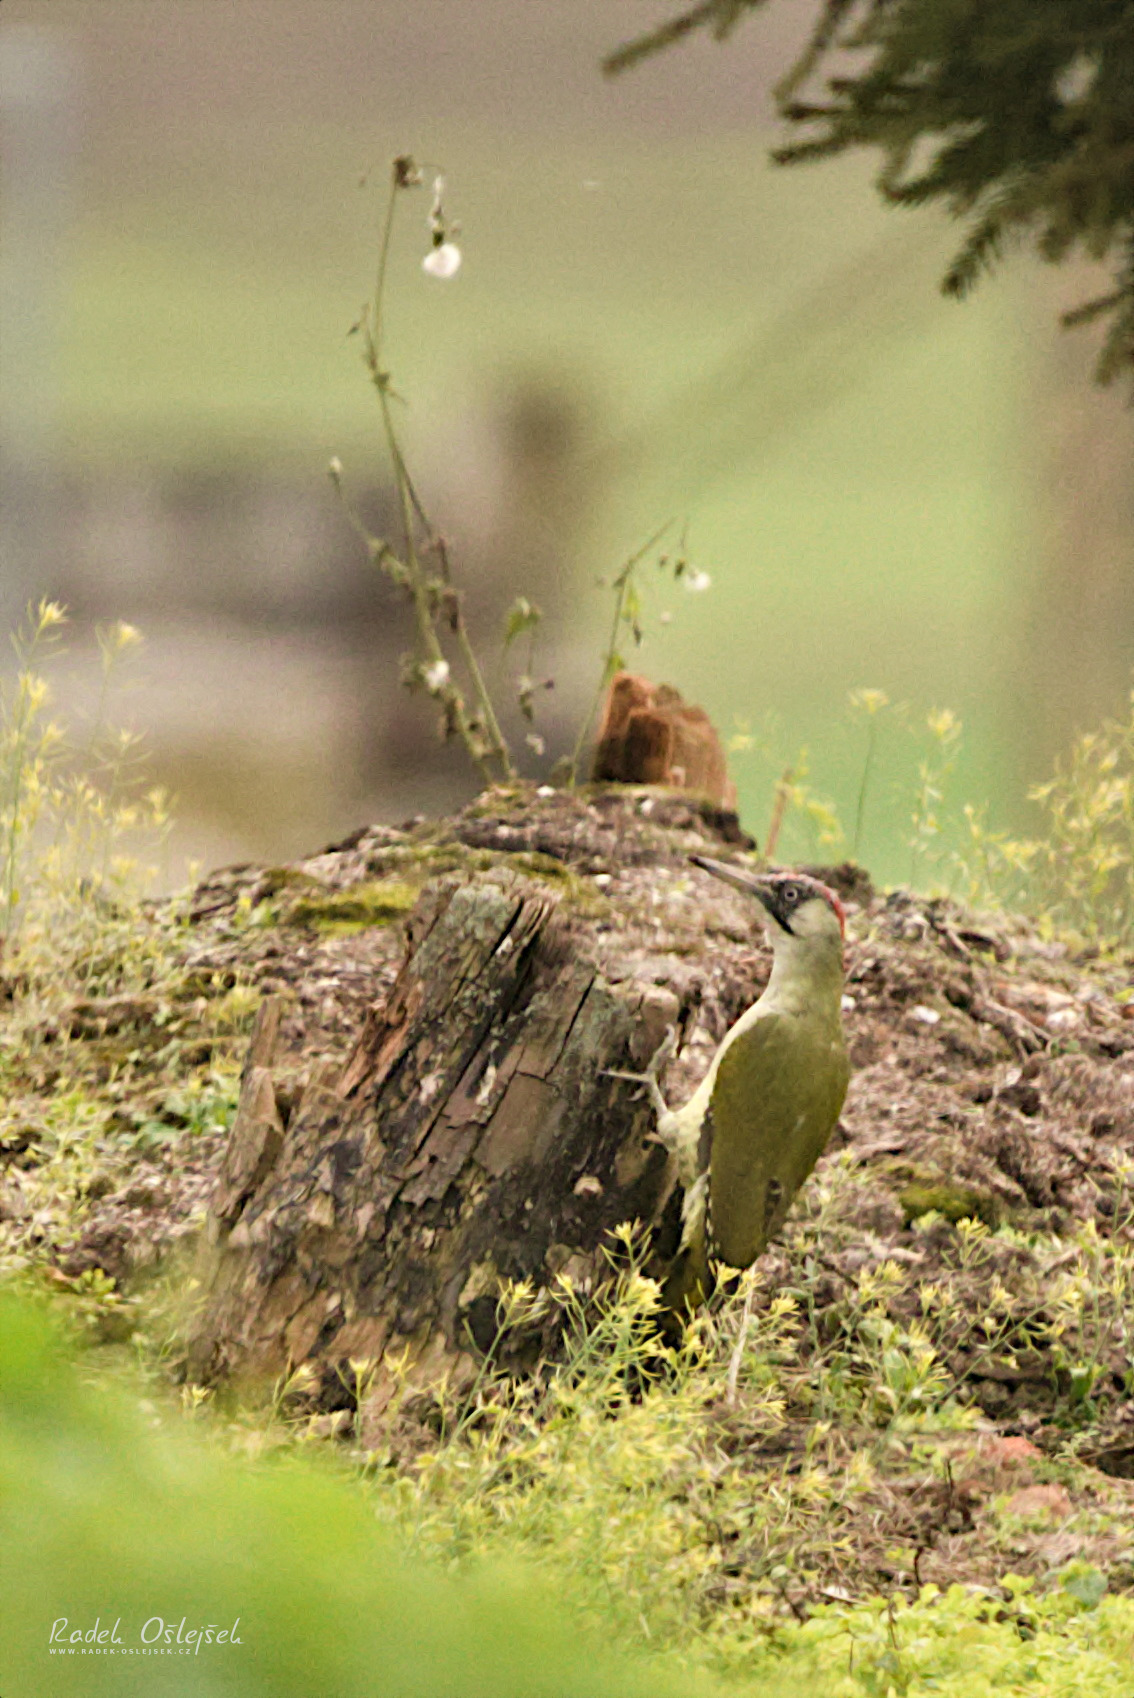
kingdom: Animalia
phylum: Chordata
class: Aves
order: Piciformes
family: Picidae
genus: Picus
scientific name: Picus viridis
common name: European green woodpecker
